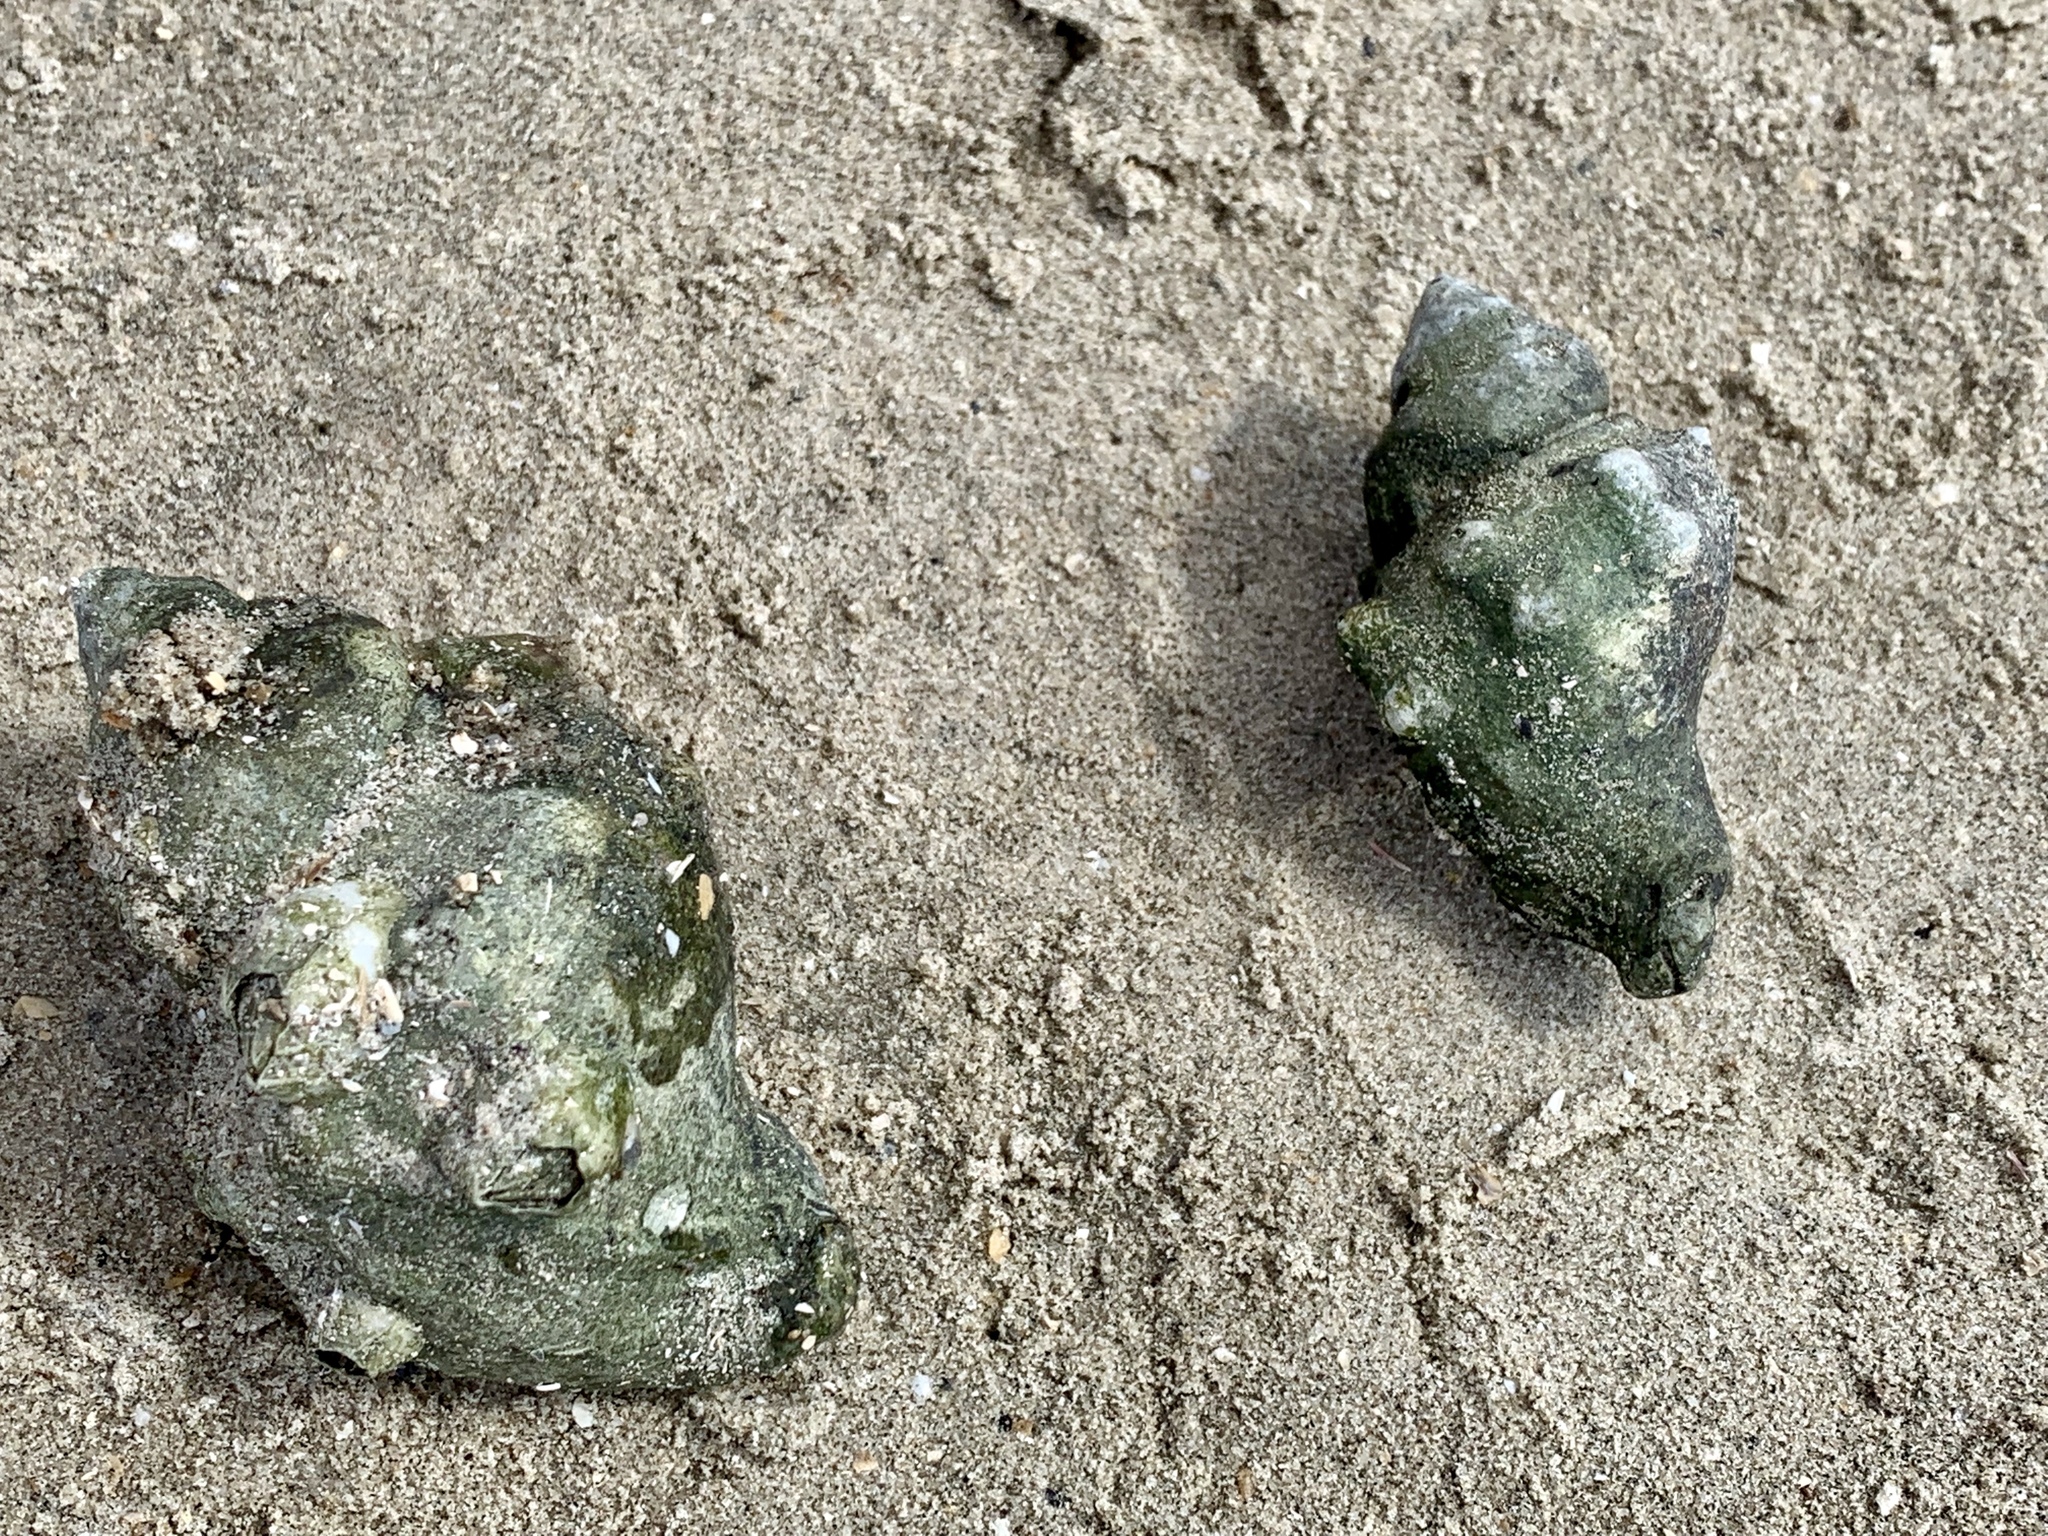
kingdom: Animalia
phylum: Arthropoda
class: Malacostraca
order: Decapoda
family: Diogenidae
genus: Clibanarius
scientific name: Clibanarius vittatus
